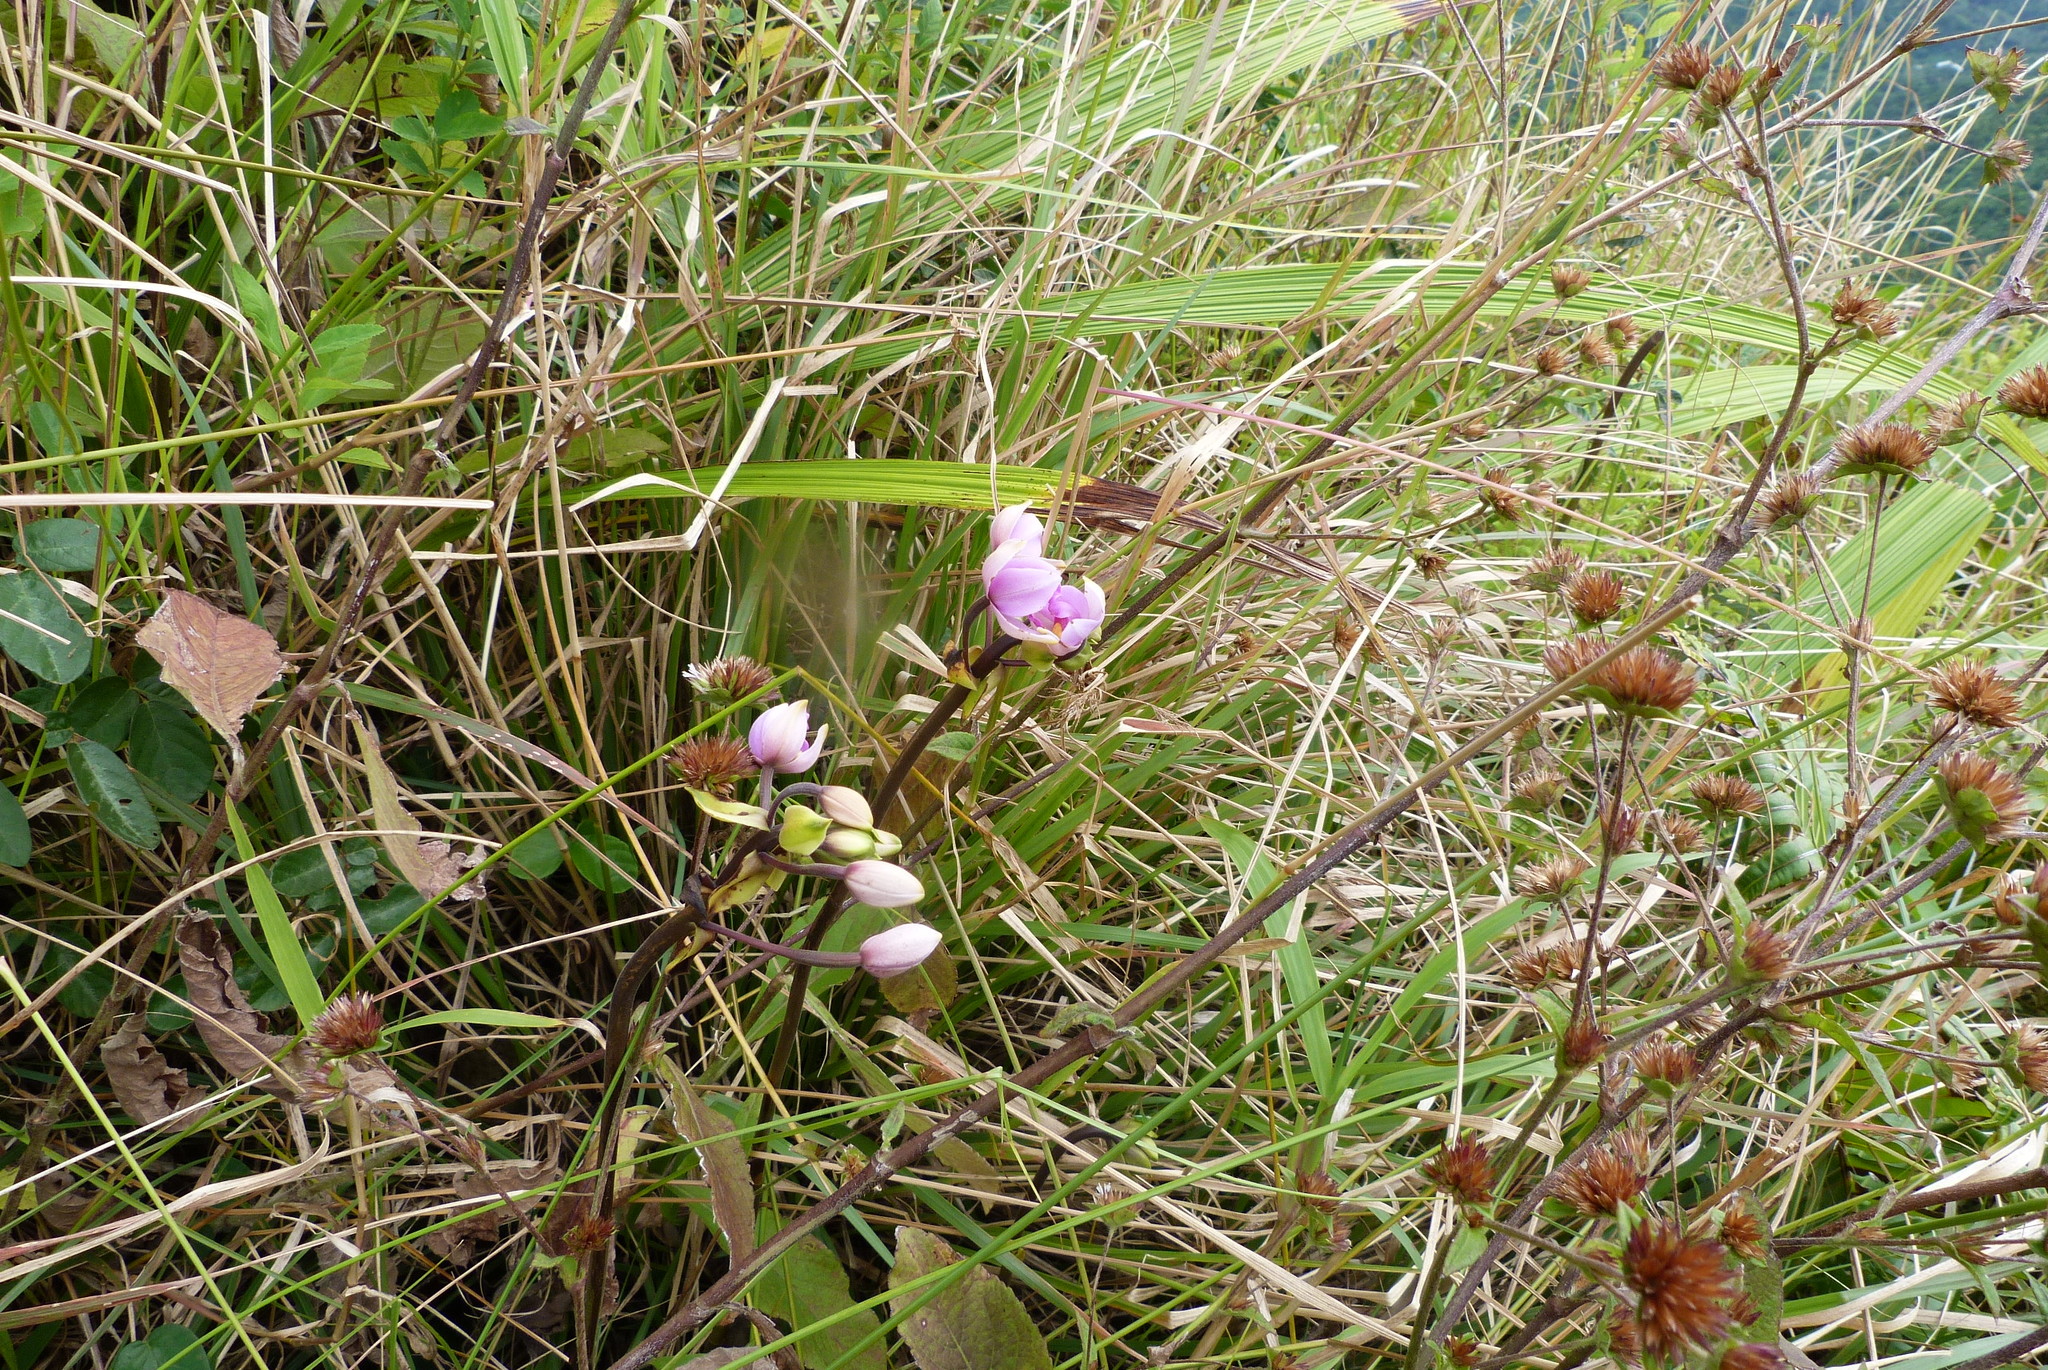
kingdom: Plantae
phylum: Tracheophyta
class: Liliopsida
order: Asparagales
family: Orchidaceae
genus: Spathoglottis
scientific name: Spathoglottis plicata
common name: Philippine ground orchid
